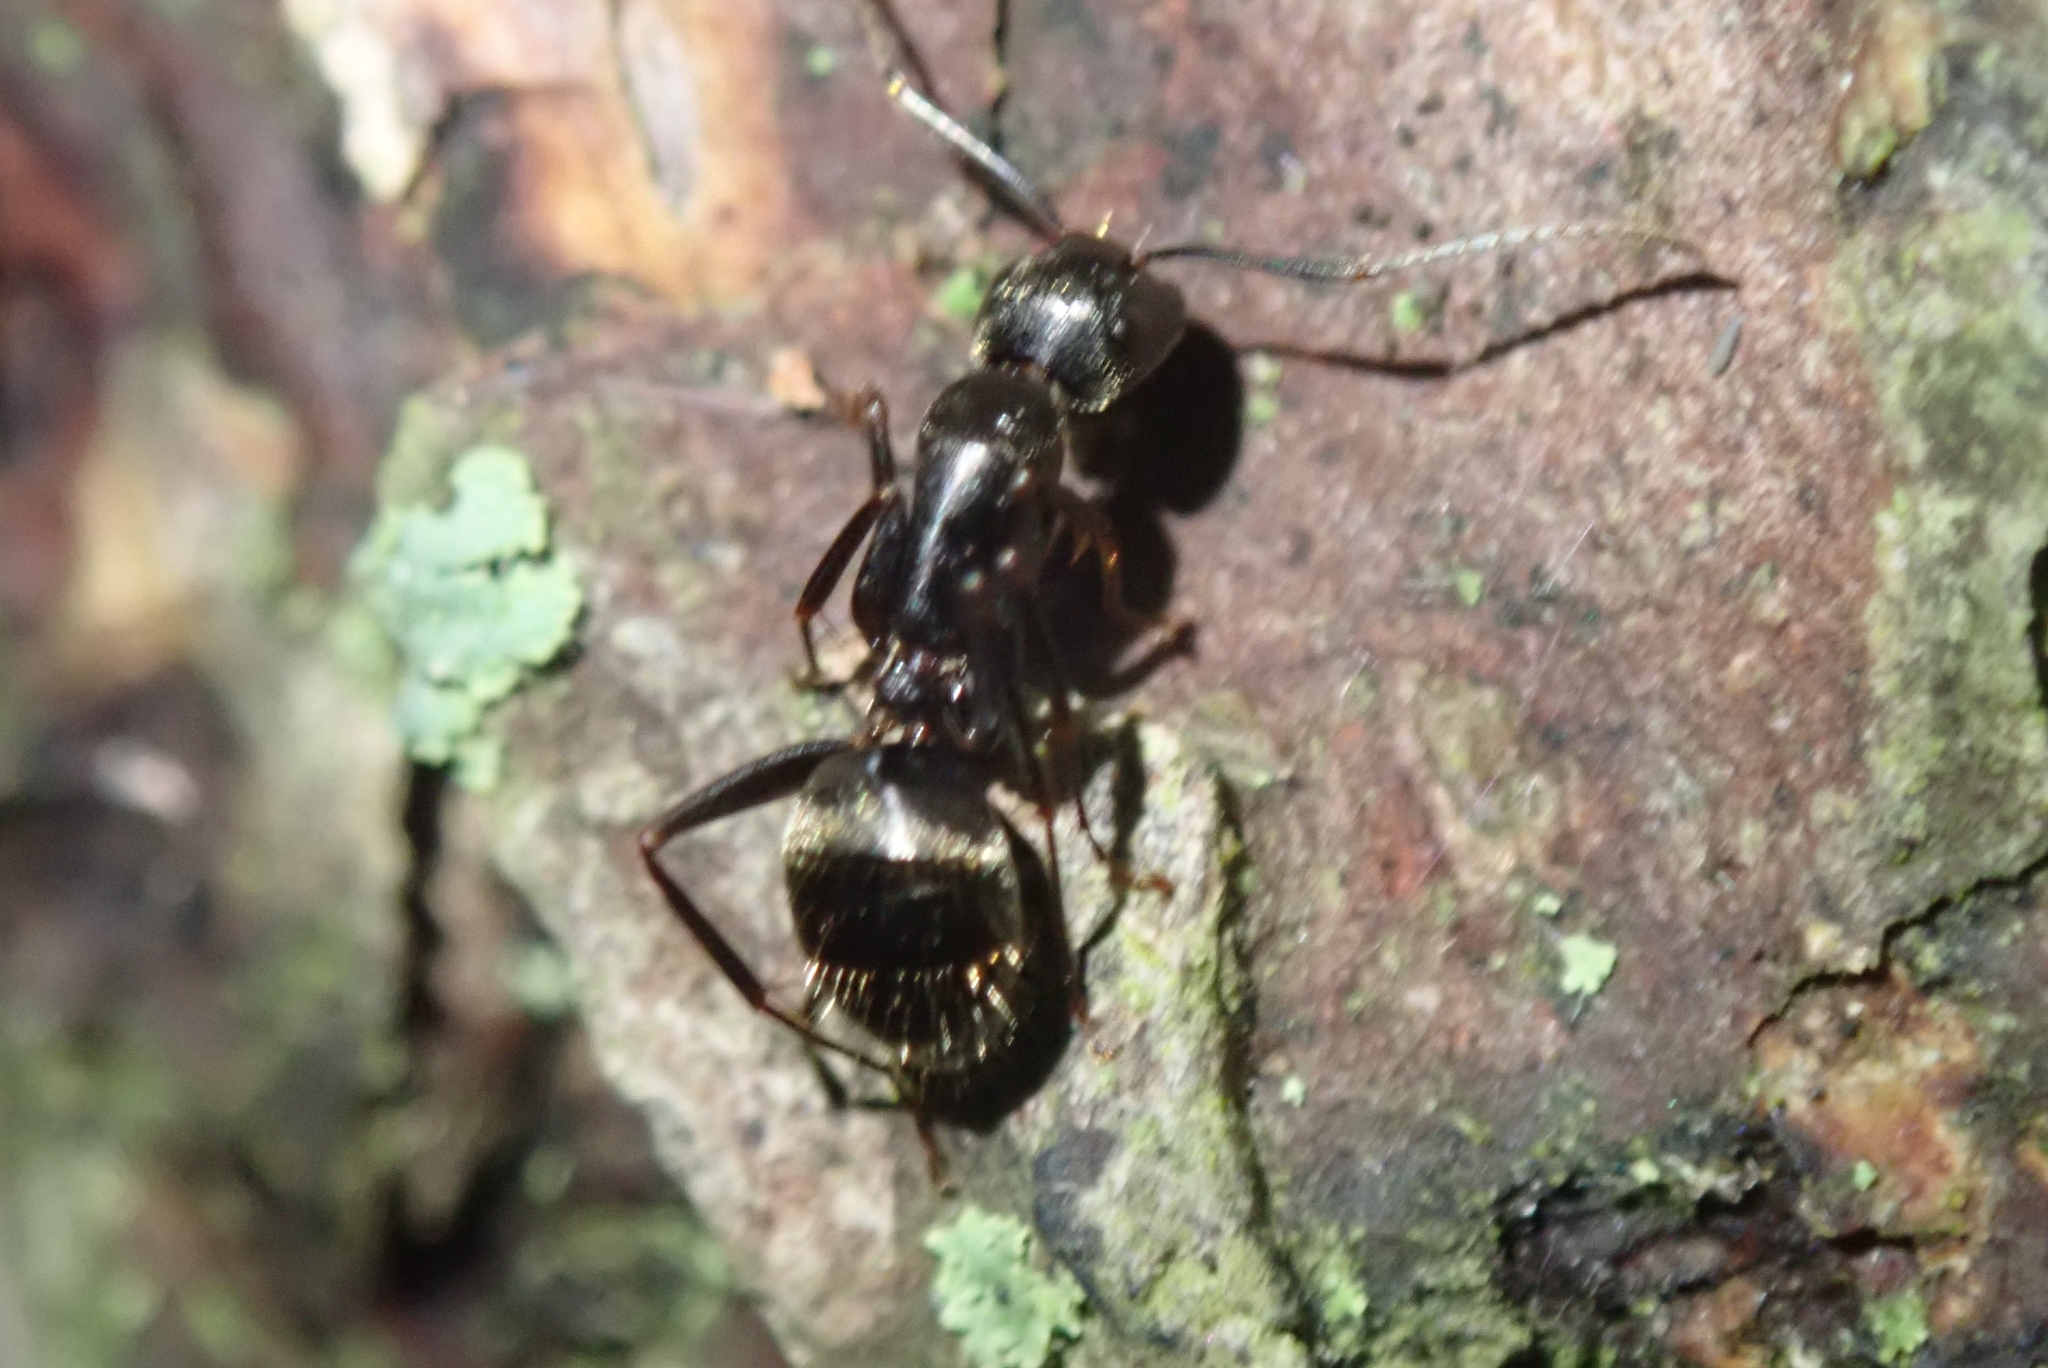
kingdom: Animalia
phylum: Arthropoda
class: Insecta
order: Hymenoptera
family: Formicidae
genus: Camponotus
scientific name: Camponotus pennsylvanicus
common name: Black carpenter ant
